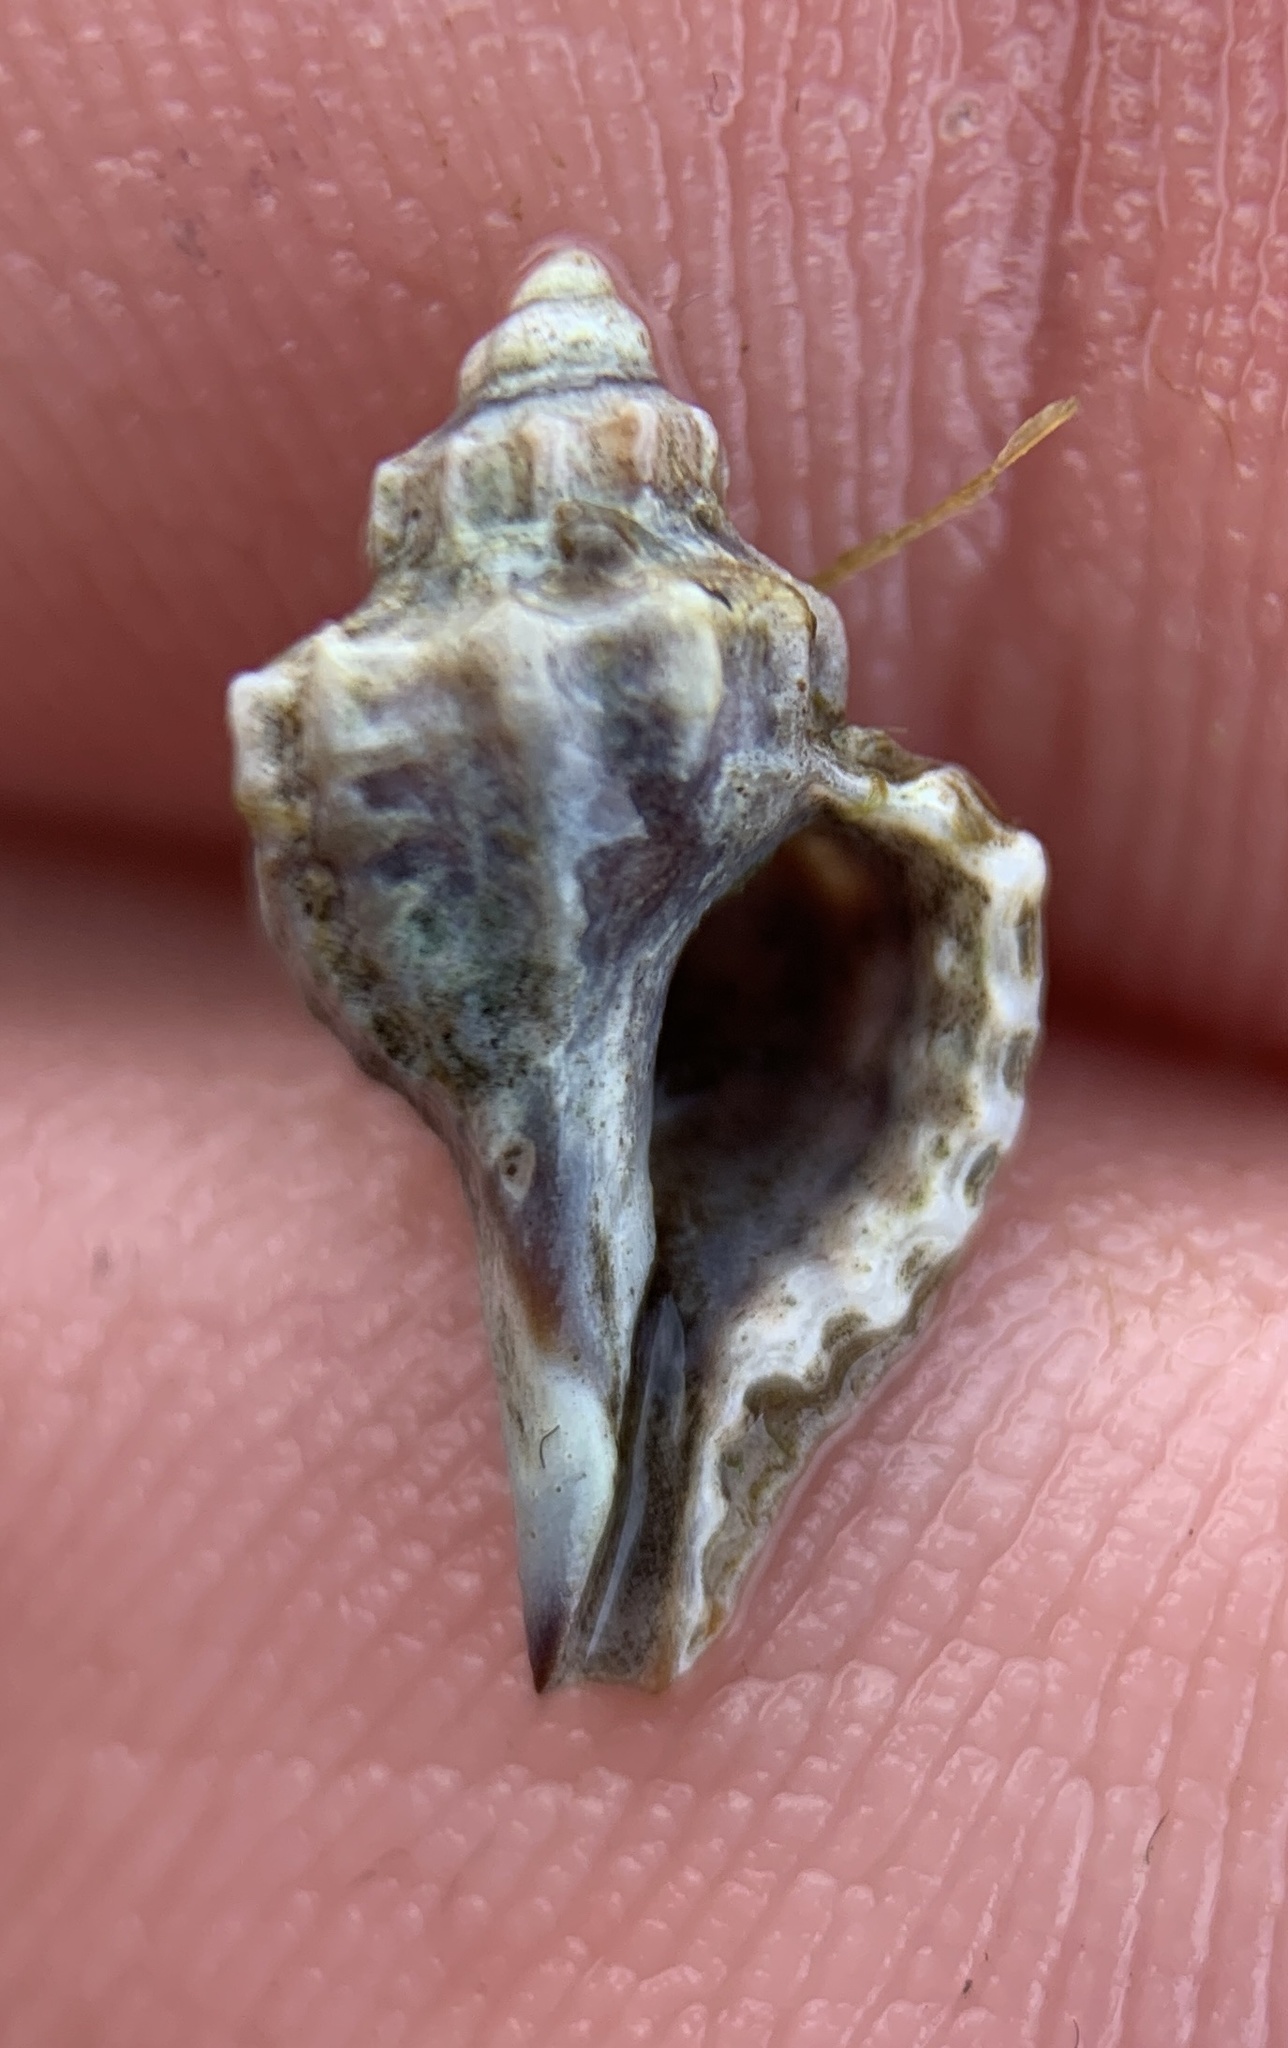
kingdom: Animalia
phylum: Mollusca
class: Gastropoda
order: Neogastropoda
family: Muricidae
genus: Eupleura
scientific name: Eupleura caudata
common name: Thick-lip drill
